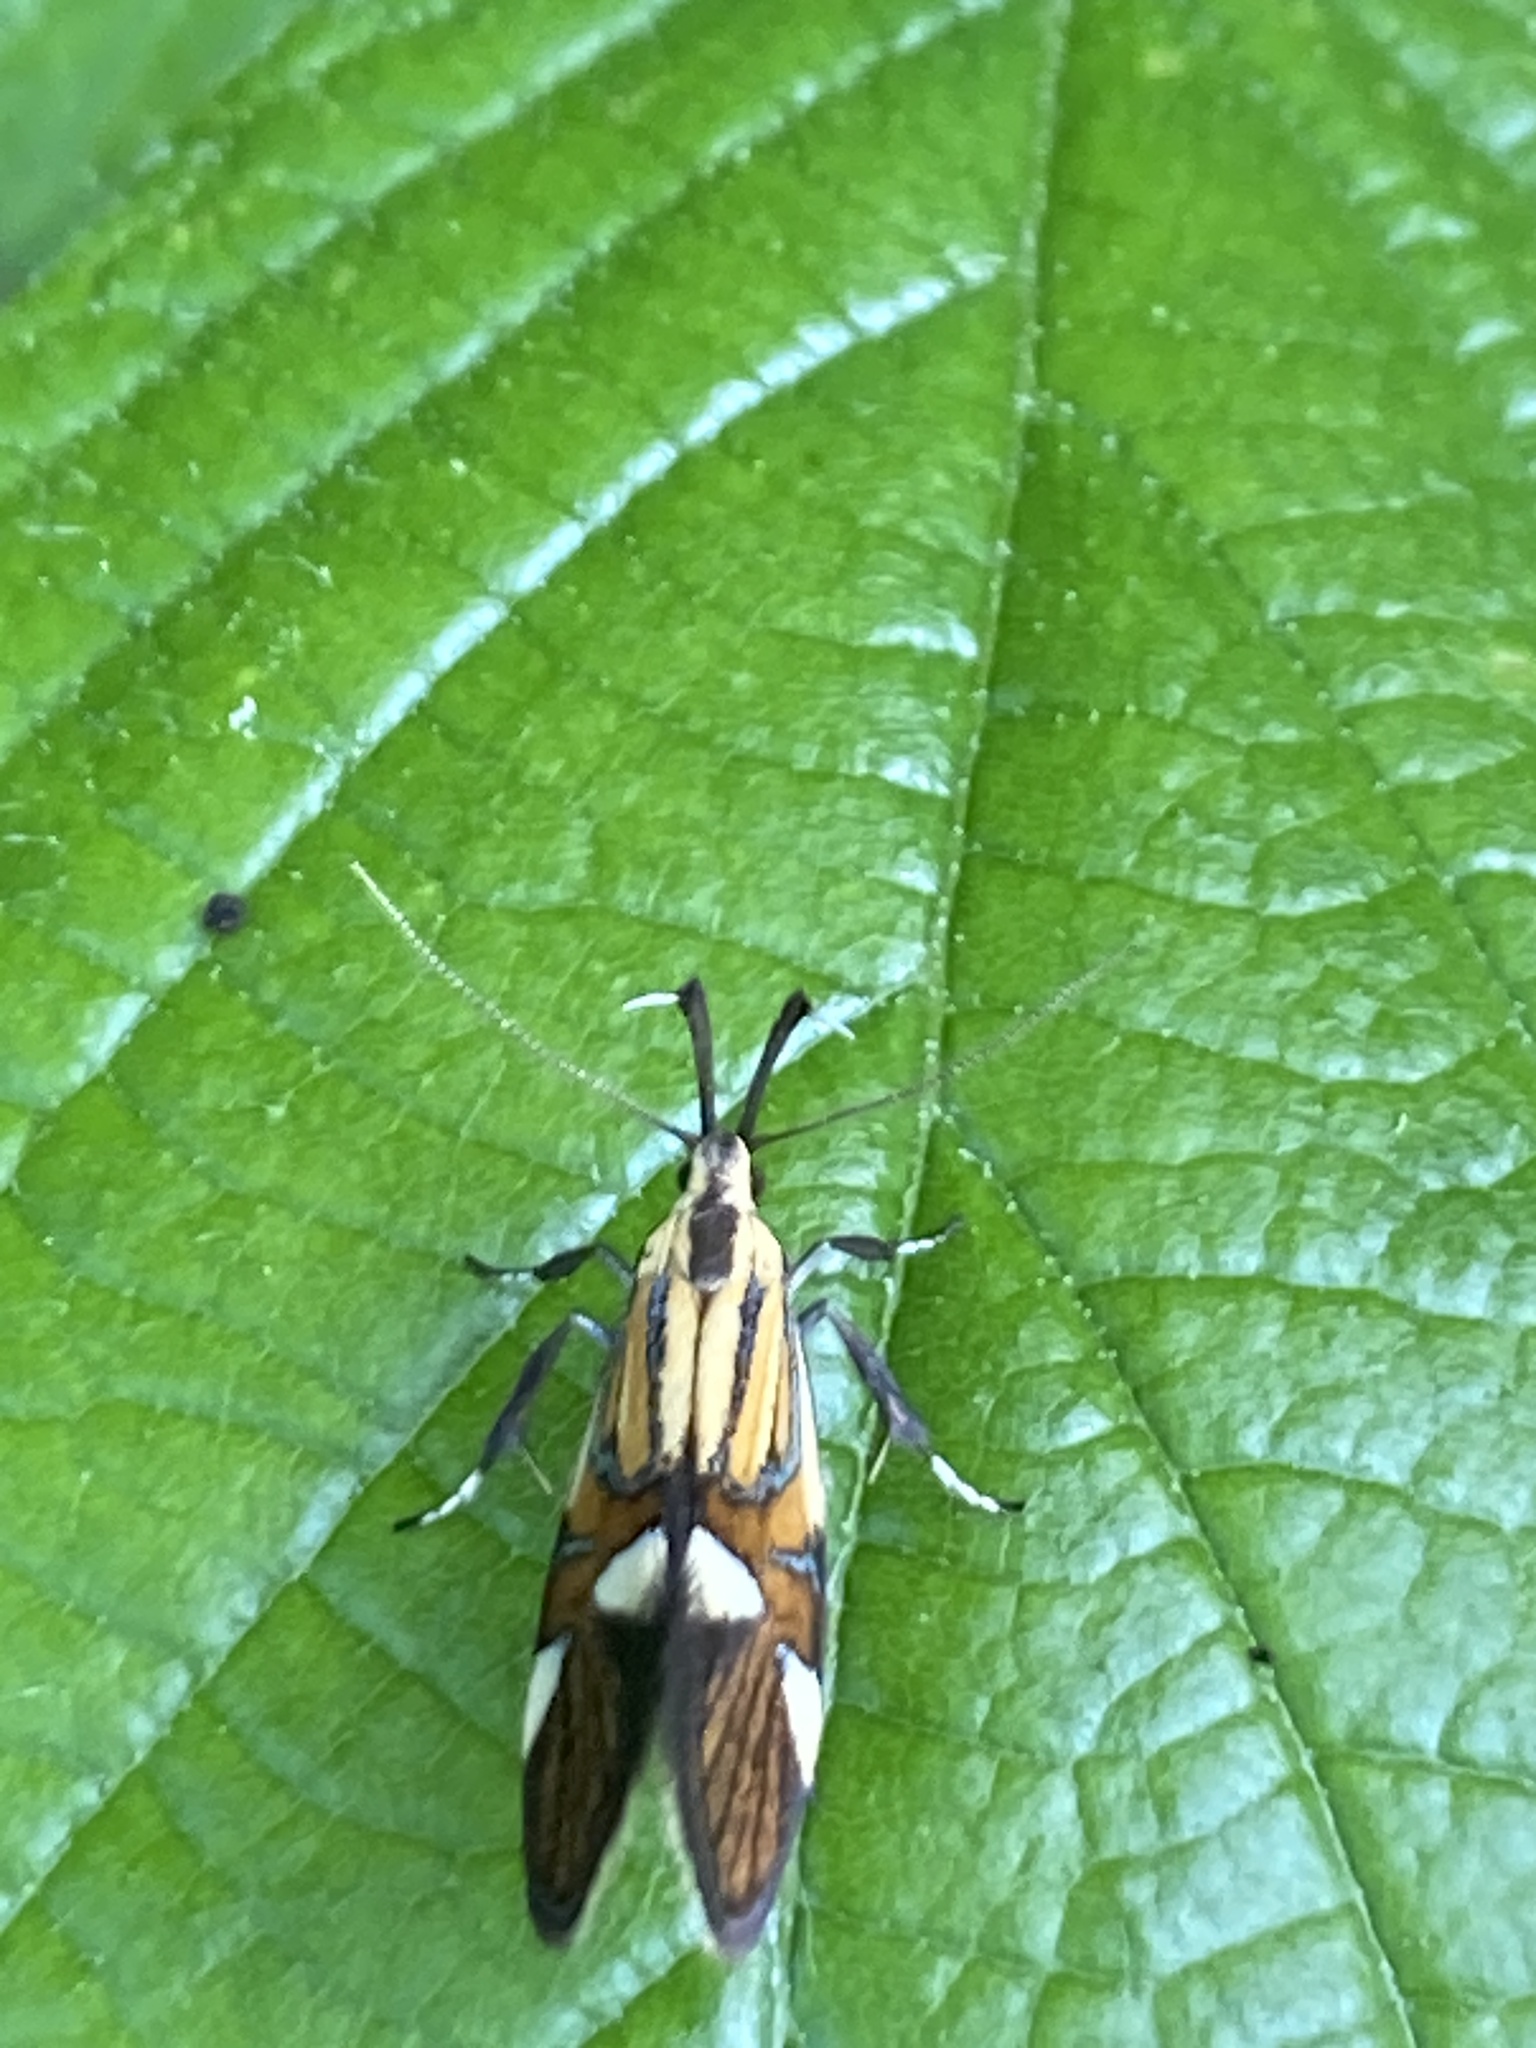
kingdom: Animalia
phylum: Arthropoda
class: Insecta
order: Lepidoptera
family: Oecophoridae
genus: Oecophora
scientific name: Oecophora Alabonia geoffrella
